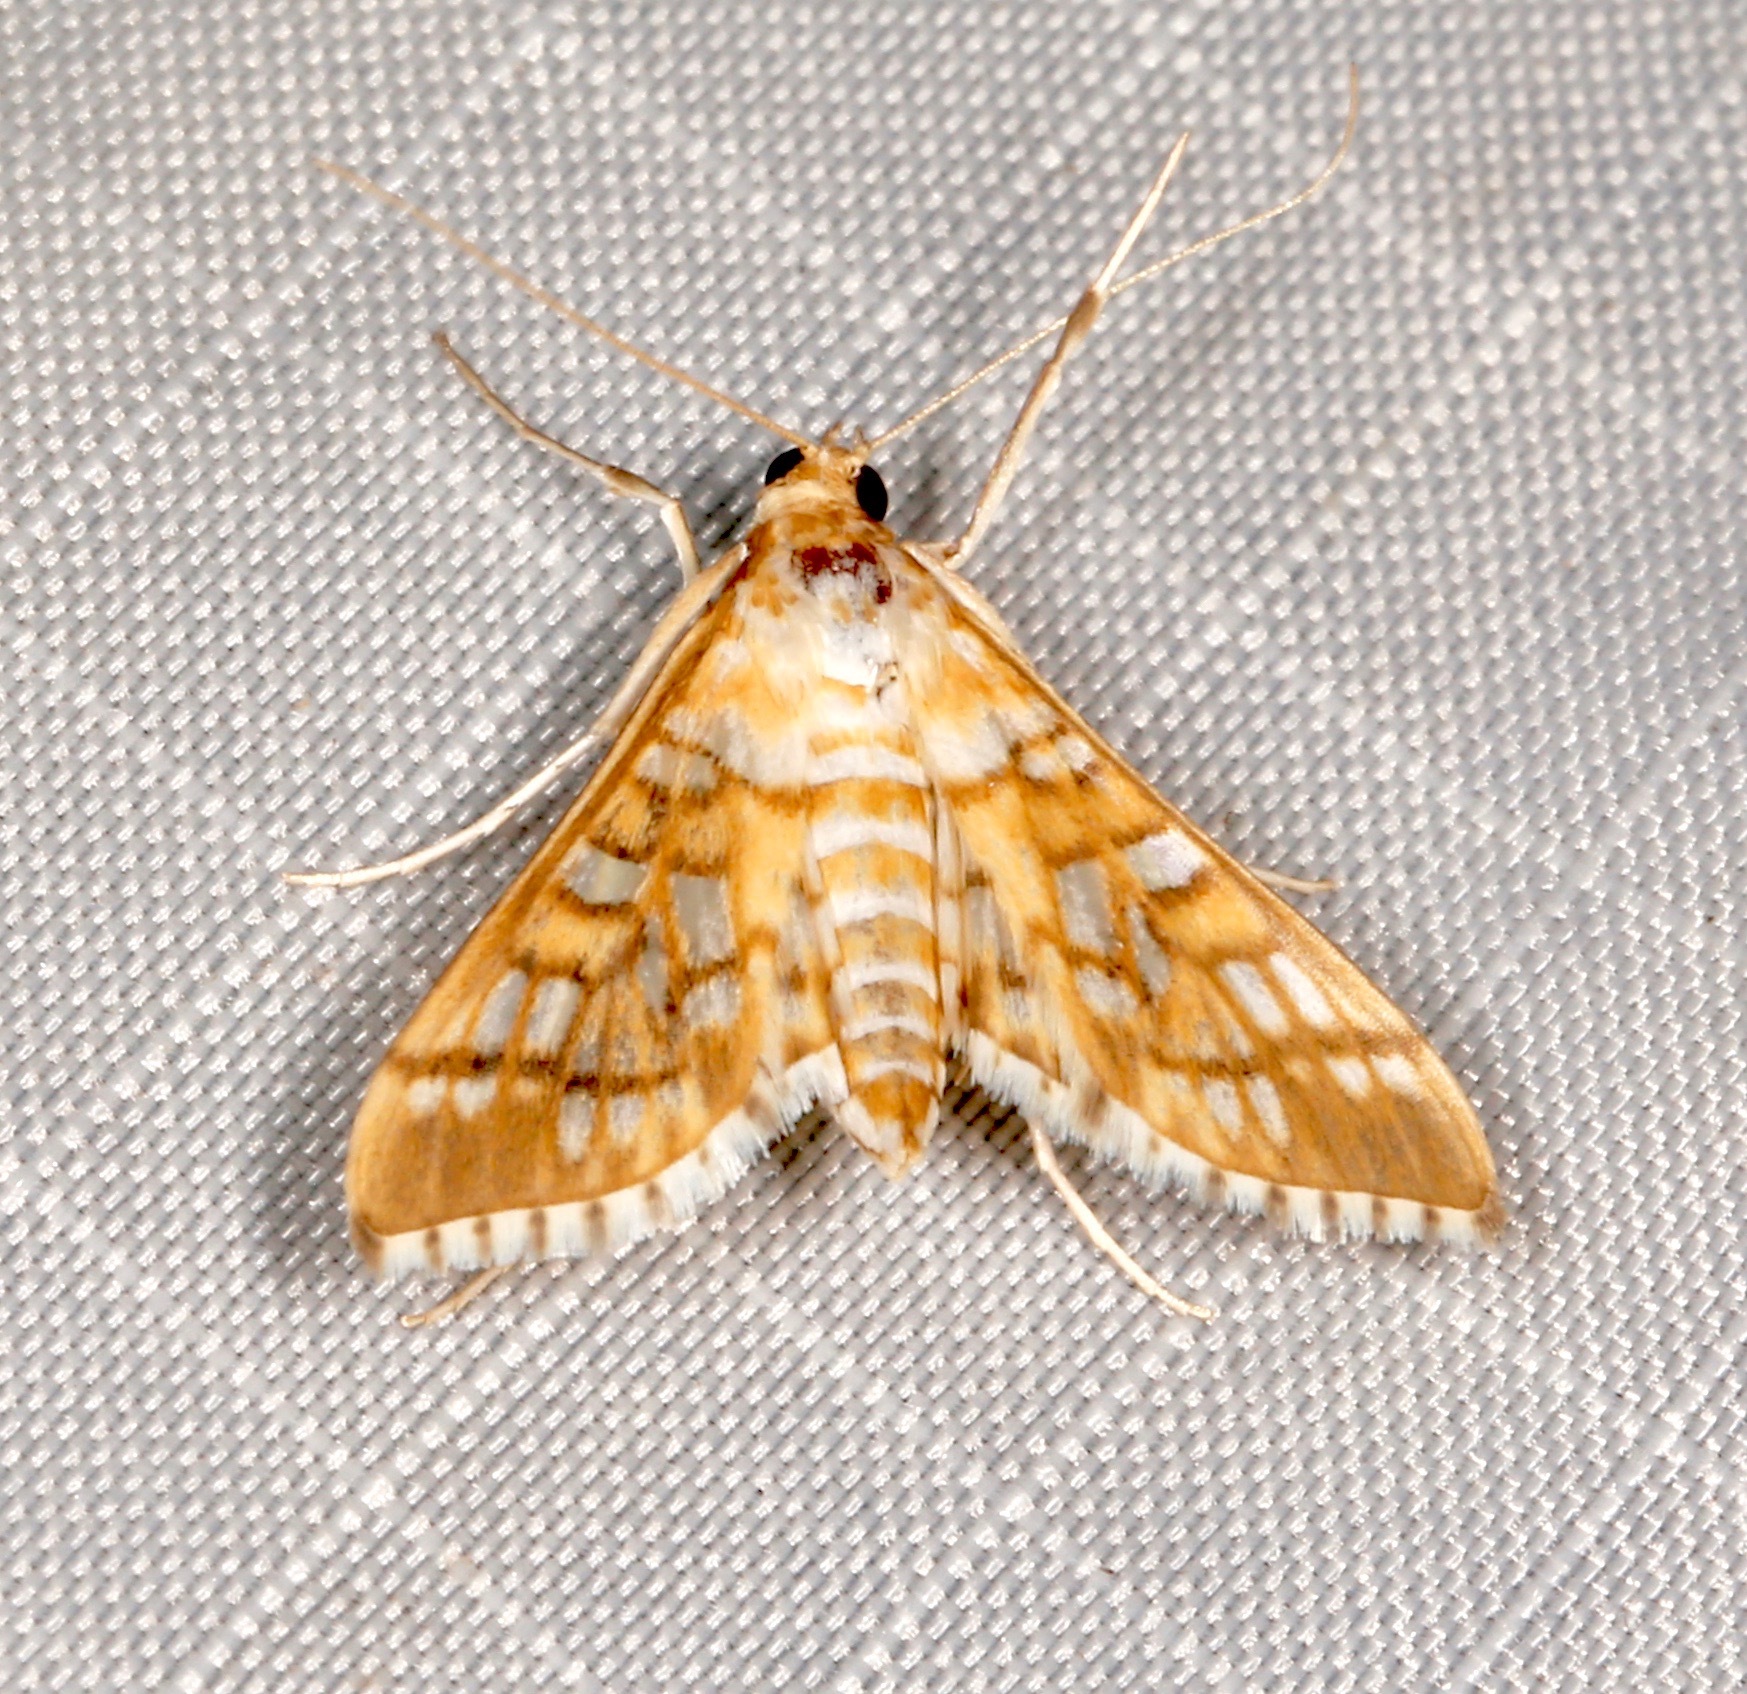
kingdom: Animalia
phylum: Arthropoda
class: Insecta
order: Lepidoptera
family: Crambidae
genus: Epipagis
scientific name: Epipagis fenestralis
